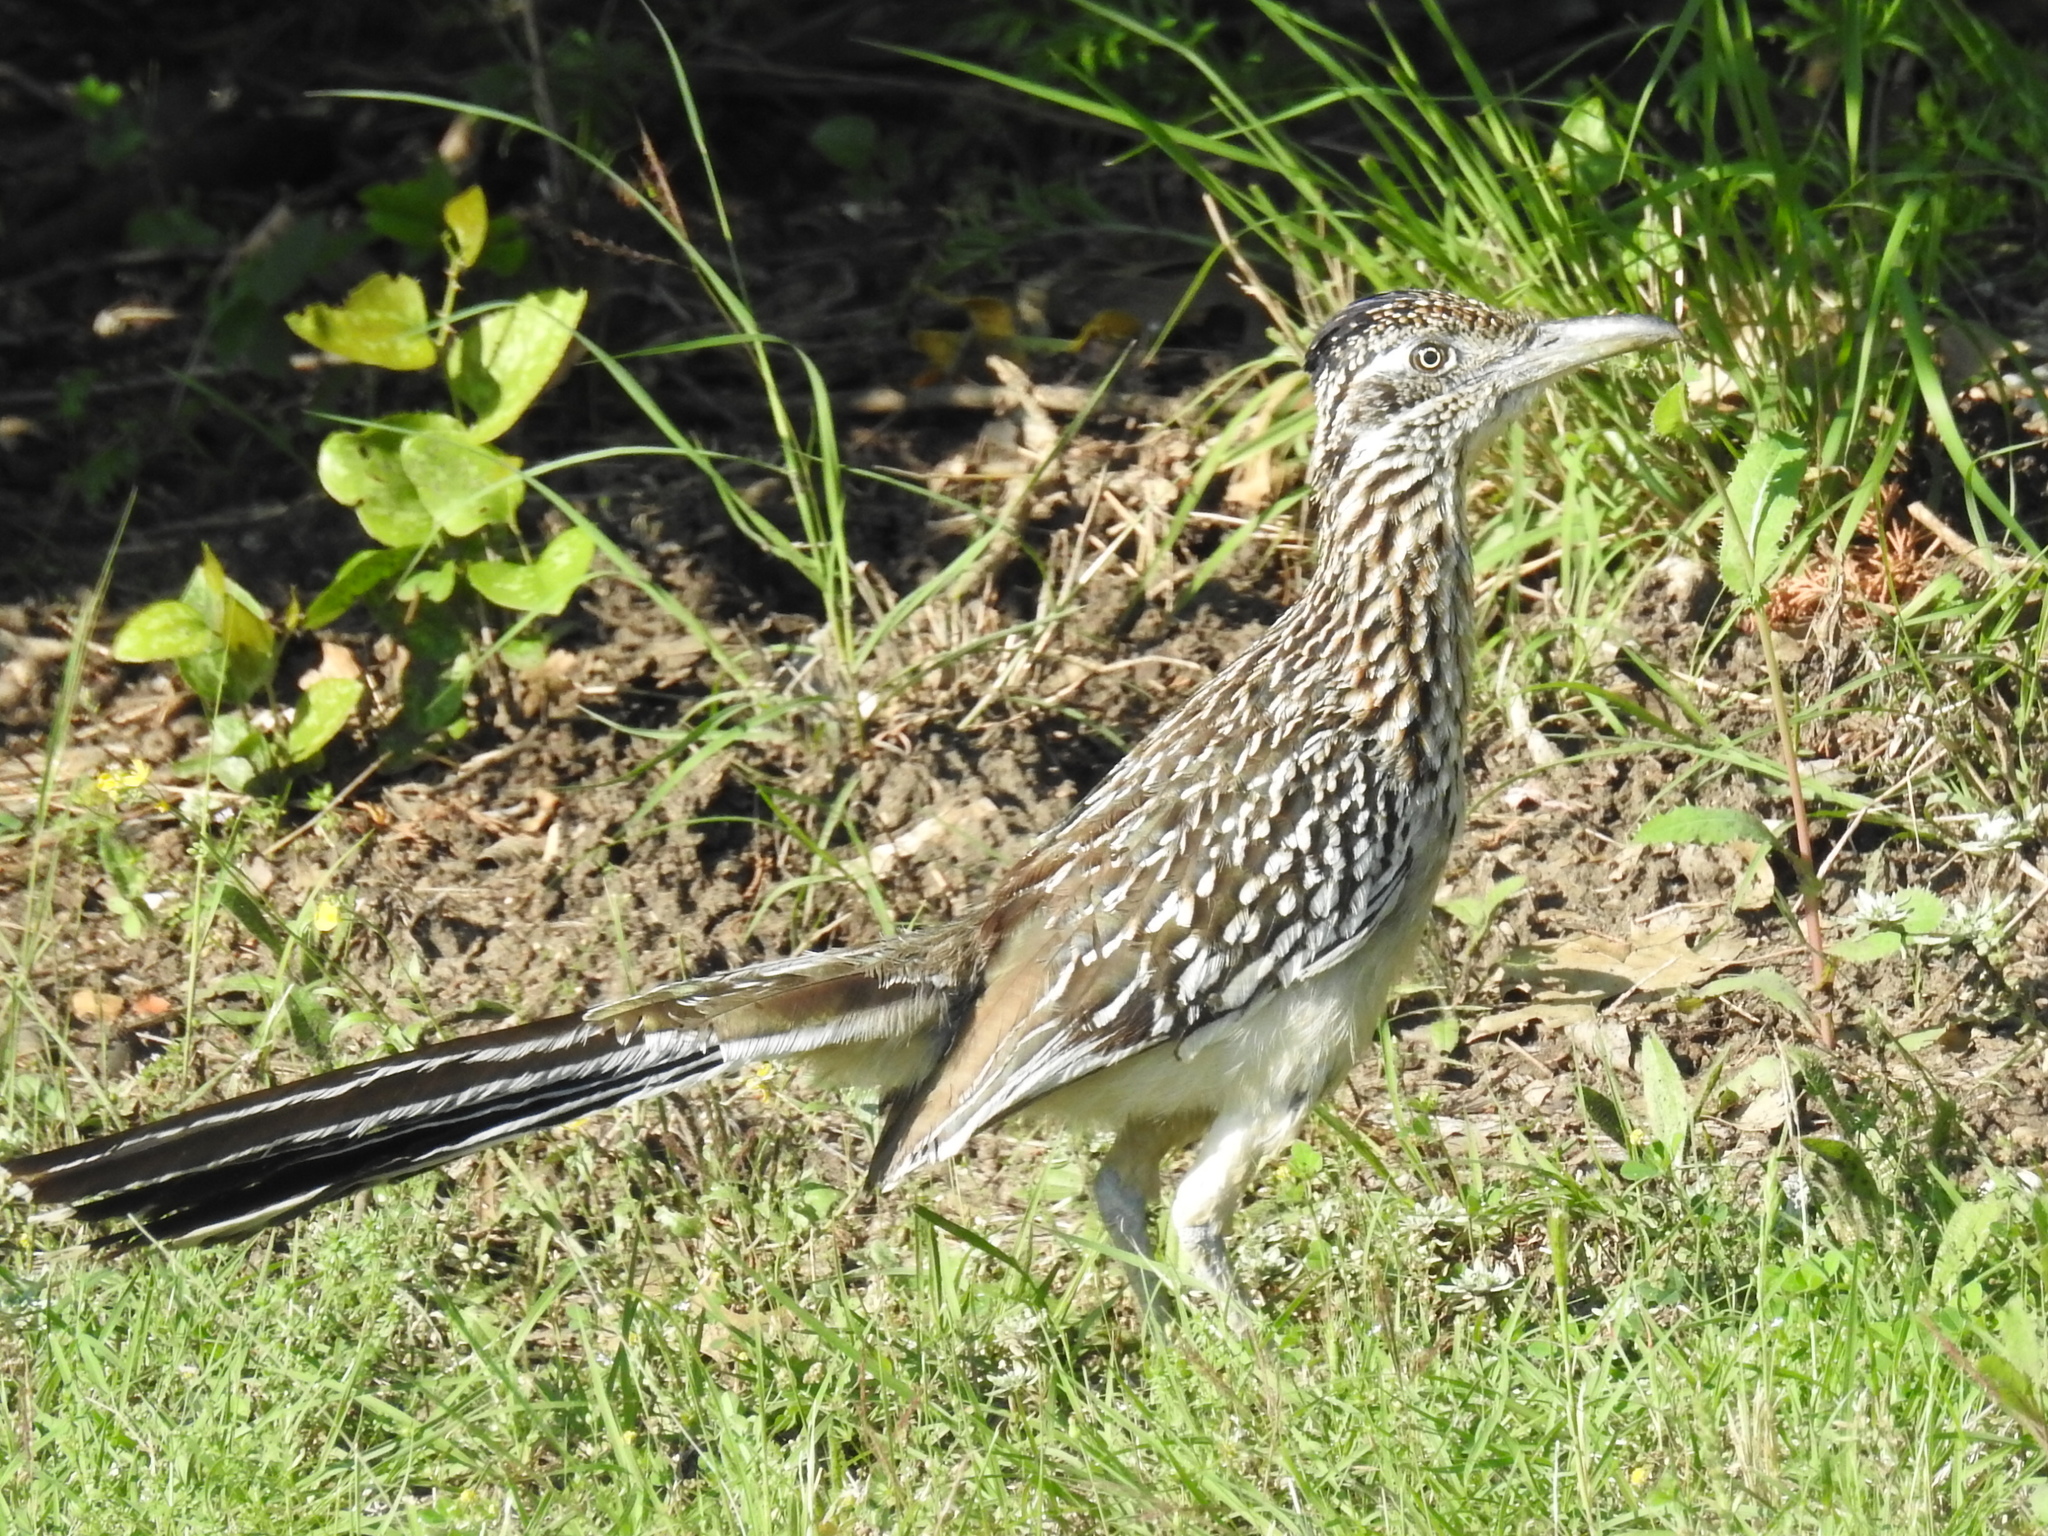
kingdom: Animalia
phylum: Chordata
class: Aves
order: Cuculiformes
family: Cuculidae
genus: Geococcyx
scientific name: Geococcyx californianus
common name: Greater roadrunner
